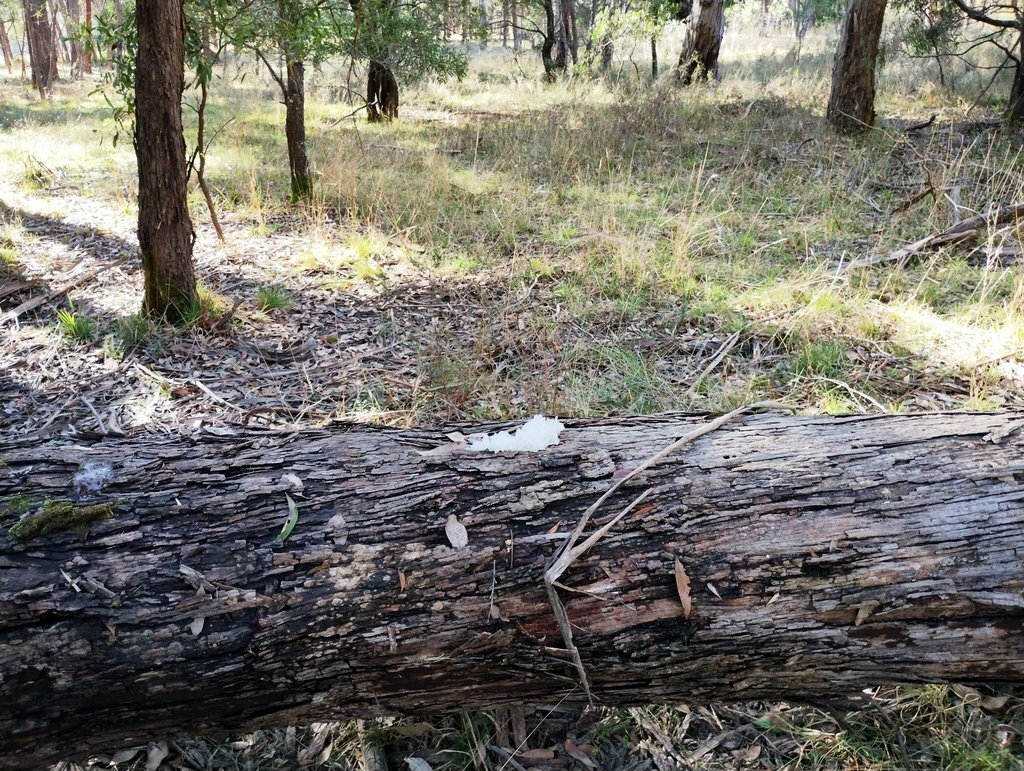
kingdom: Fungi
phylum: Basidiomycota
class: Tremellomycetes
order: Tremellales
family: Tremellaceae
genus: Tremella
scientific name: Tremella fuciformis
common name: Snow fungus
